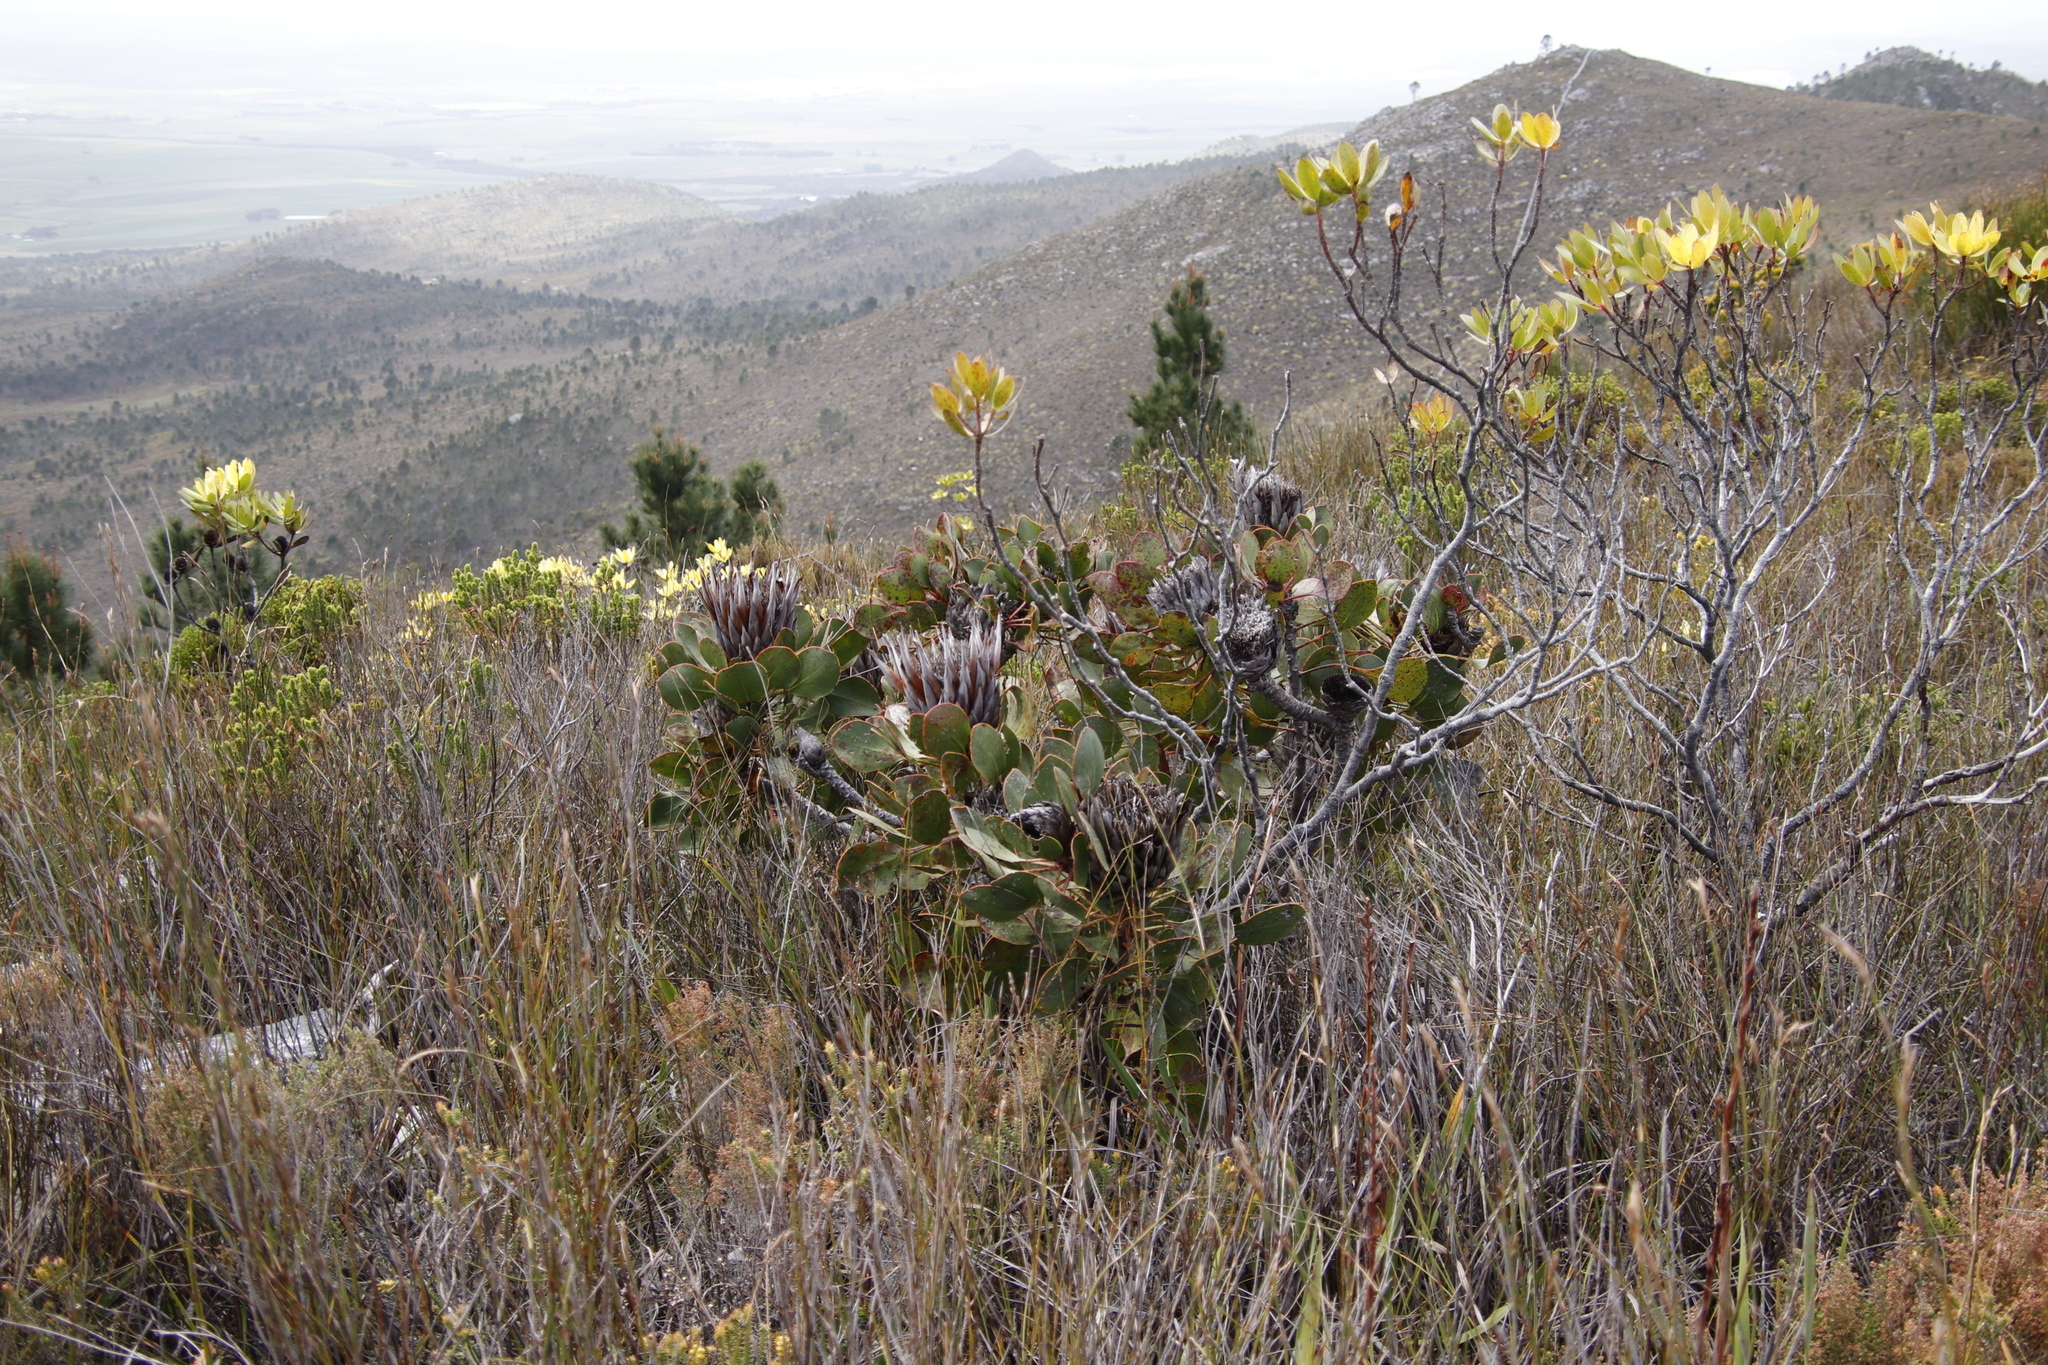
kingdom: Plantae
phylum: Tracheophyta
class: Magnoliopsida
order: Proteales
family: Proteaceae
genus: Protea
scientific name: Protea cynaroides
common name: King protea
